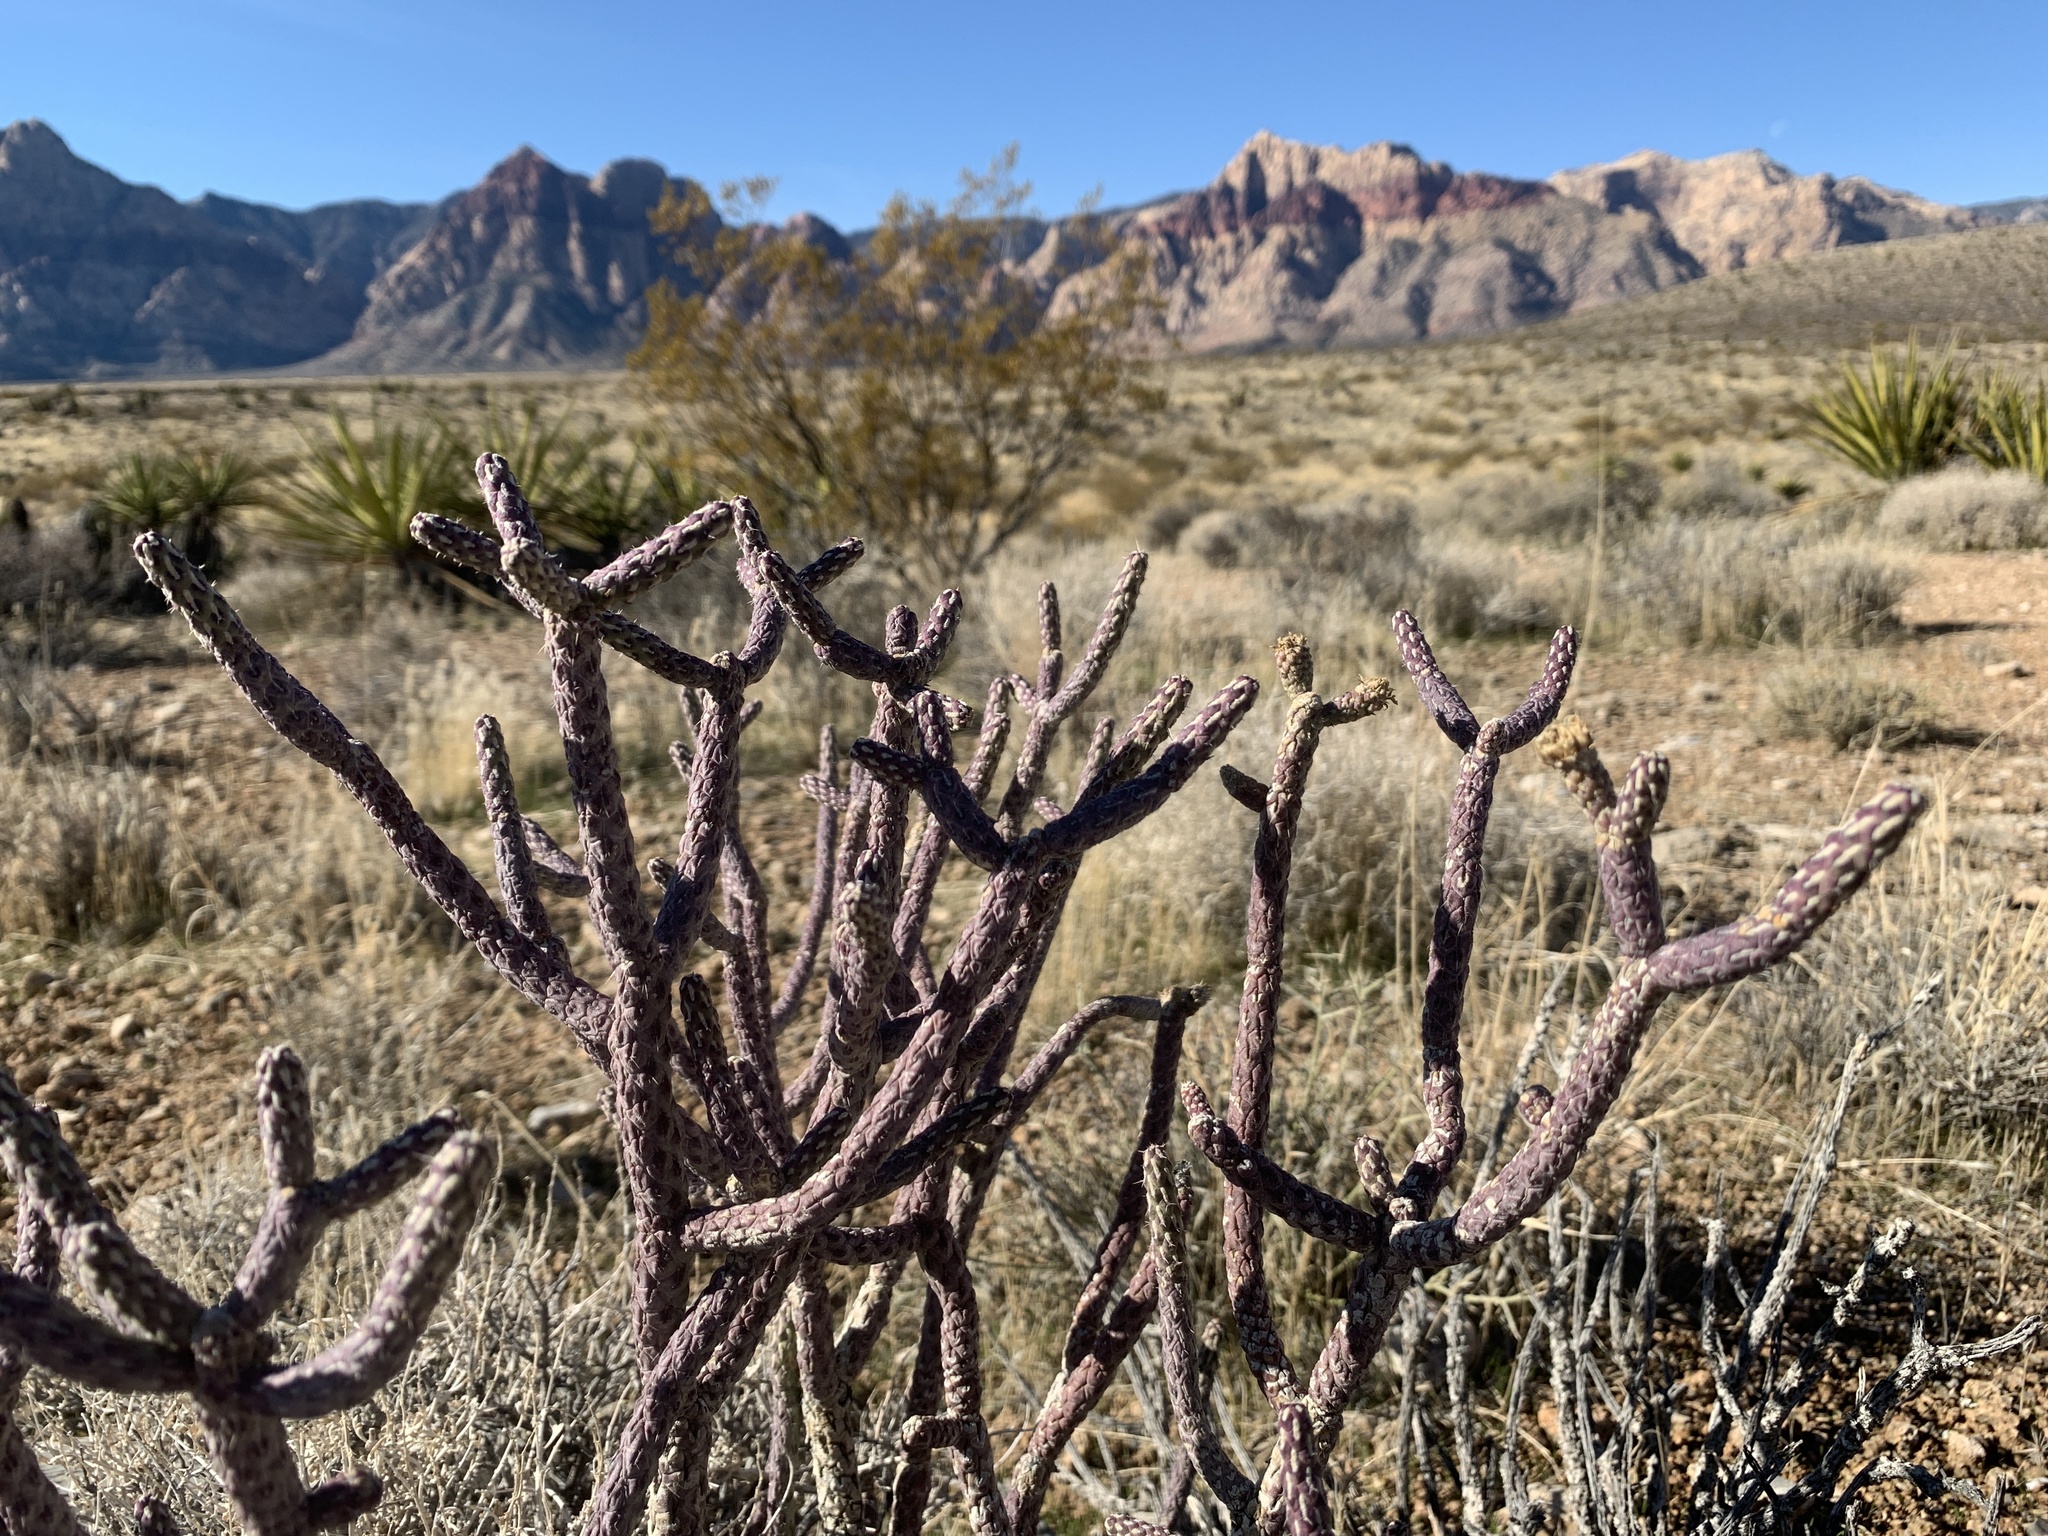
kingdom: Plantae
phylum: Tracheophyta
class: Magnoliopsida
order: Caryophyllales
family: Cactaceae
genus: Cylindropuntia
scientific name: Cylindropuntia ramosissima
